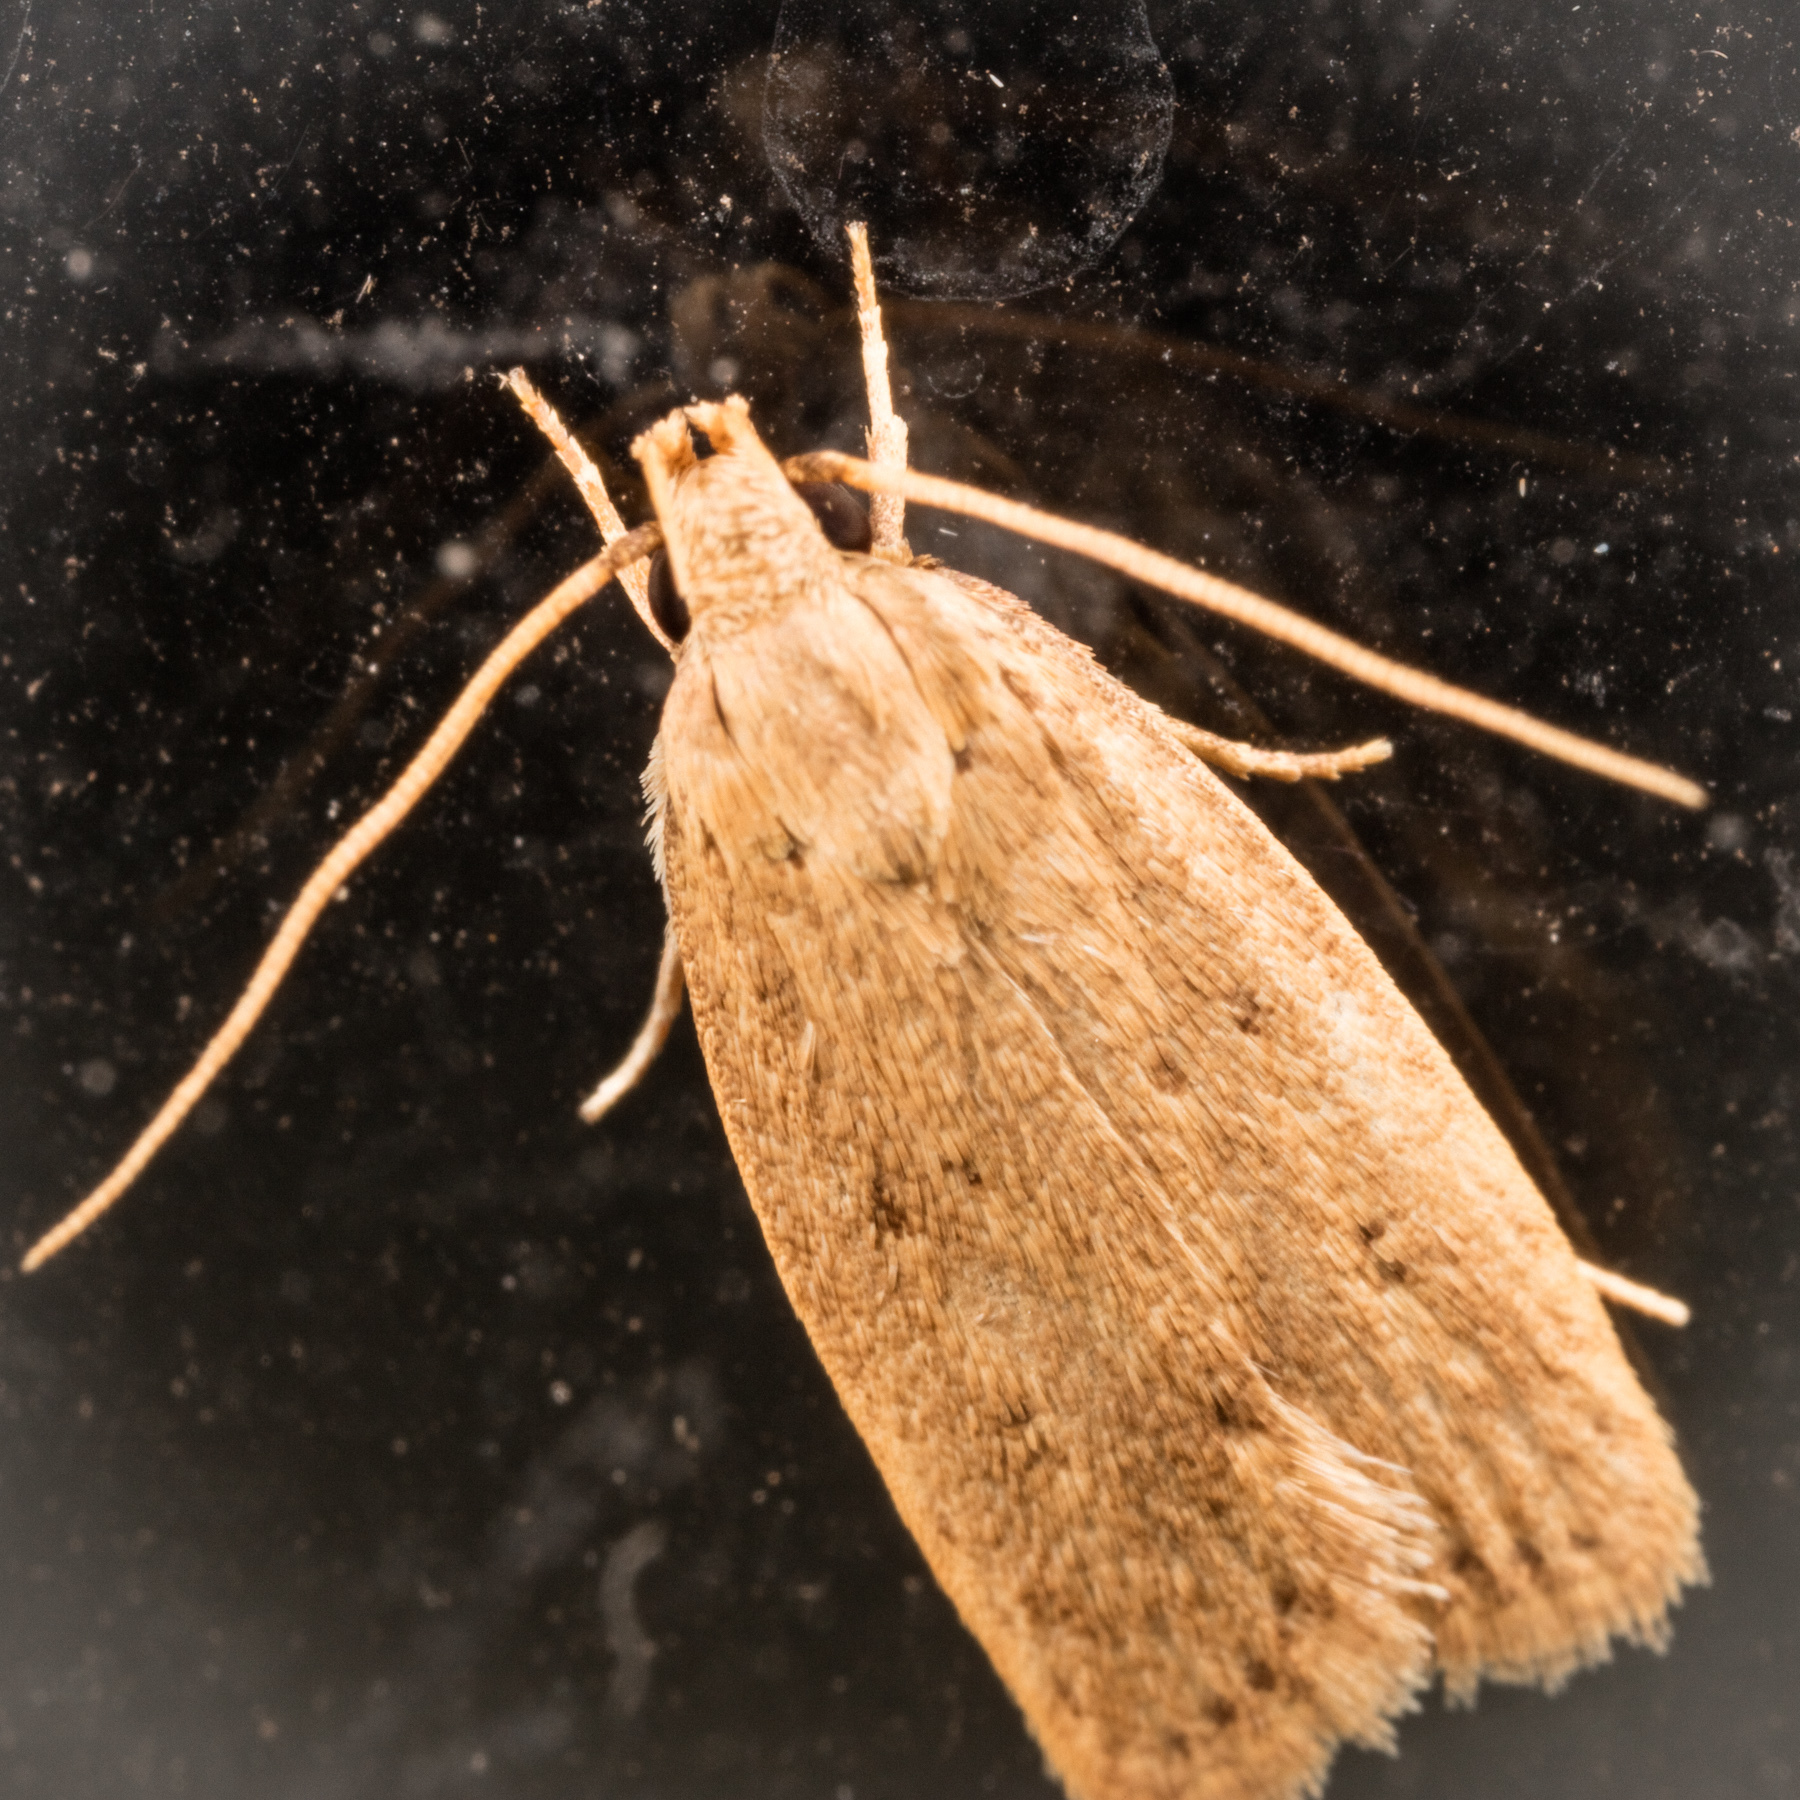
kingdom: Animalia
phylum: Arthropoda
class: Insecta
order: Lepidoptera
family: Autostichidae
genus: Autosticha
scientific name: Autosticha kyotensis
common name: Kyoto moth
